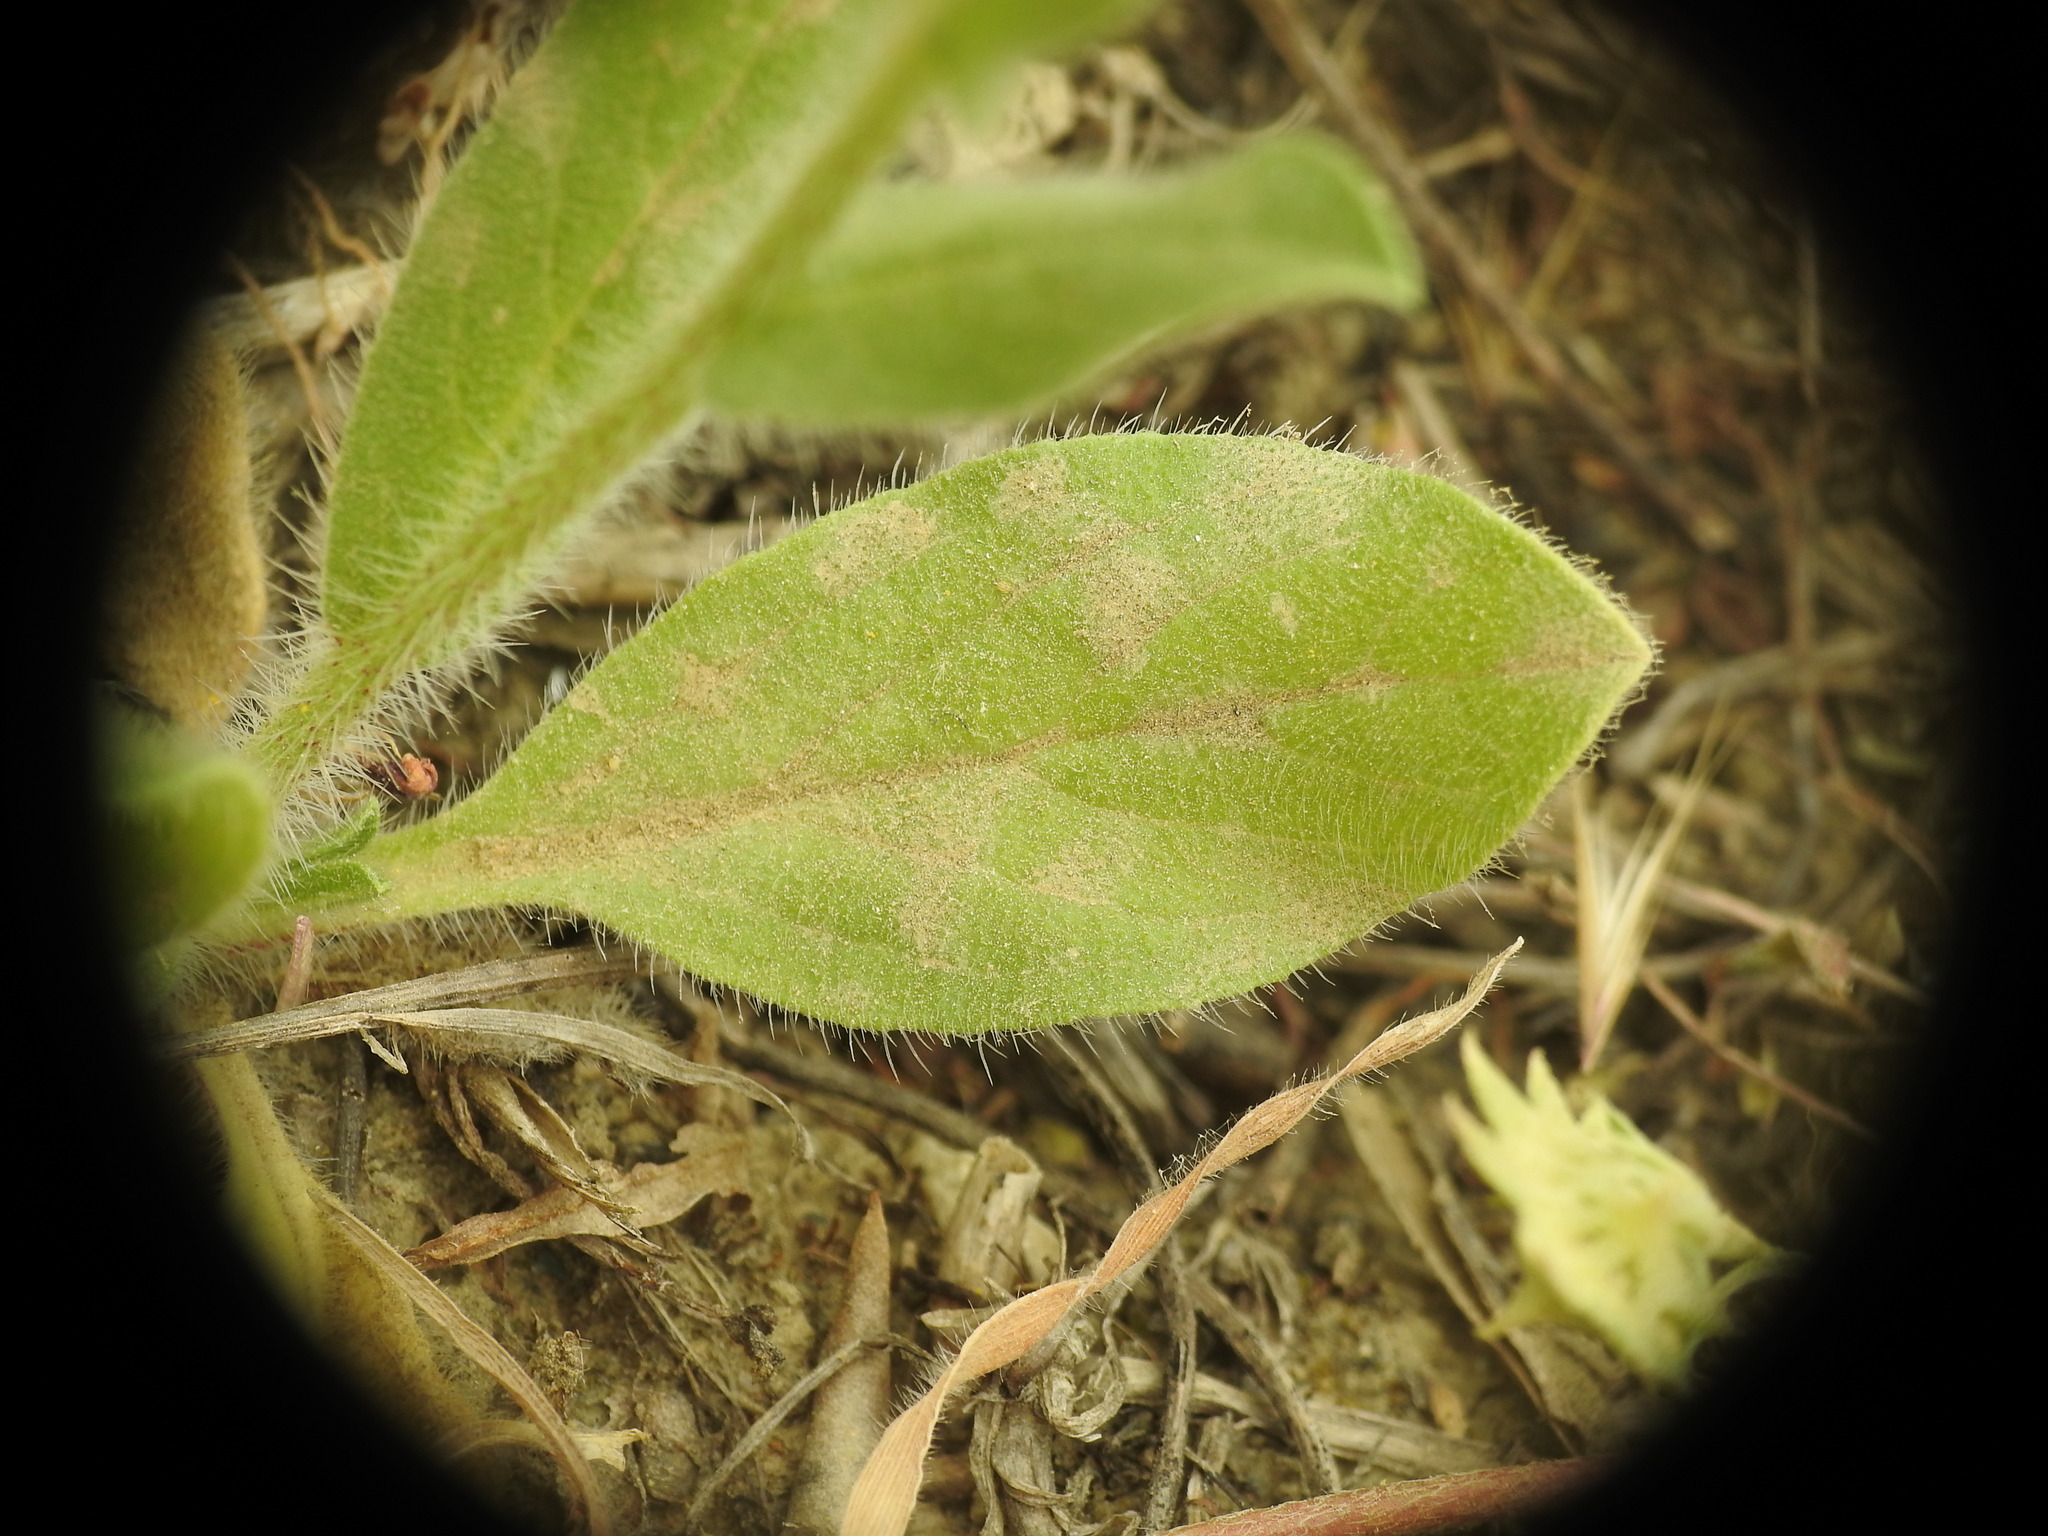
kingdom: Plantae
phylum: Tracheophyta
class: Magnoliopsida
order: Boraginales
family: Boraginaceae
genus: Echium
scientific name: Echium plantagineum
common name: Purple viper's-bugloss
